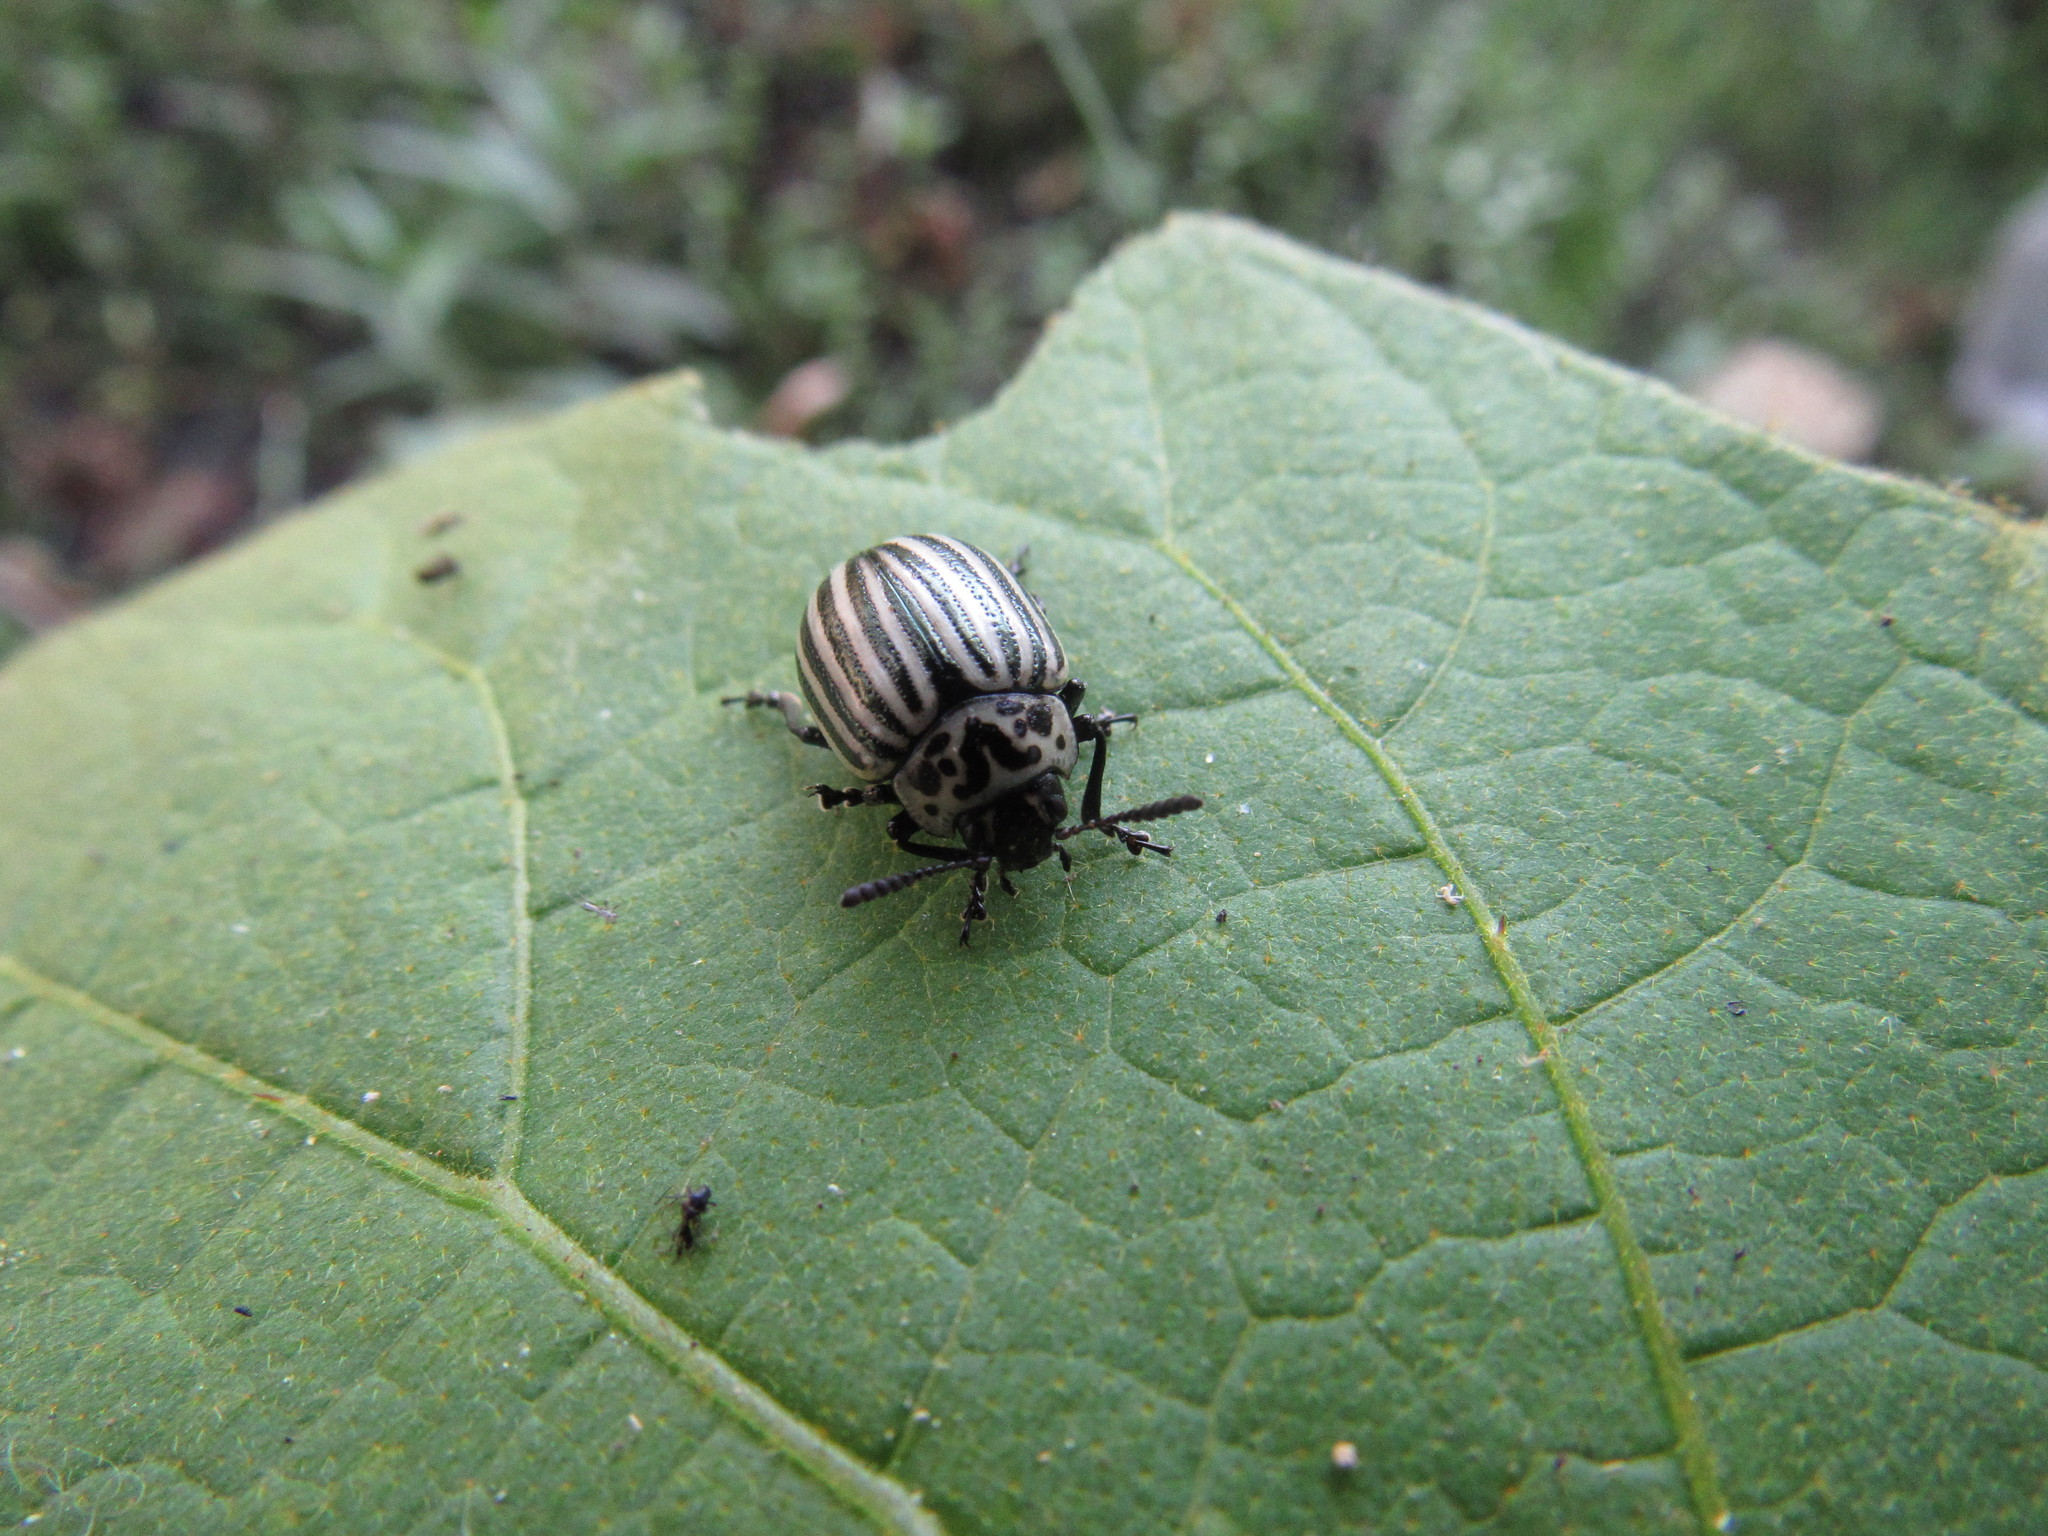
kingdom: Animalia
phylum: Arthropoda
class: Insecta
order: Coleoptera
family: Chrysomelidae
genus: Leptinotarsa
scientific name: Leptinotarsa
